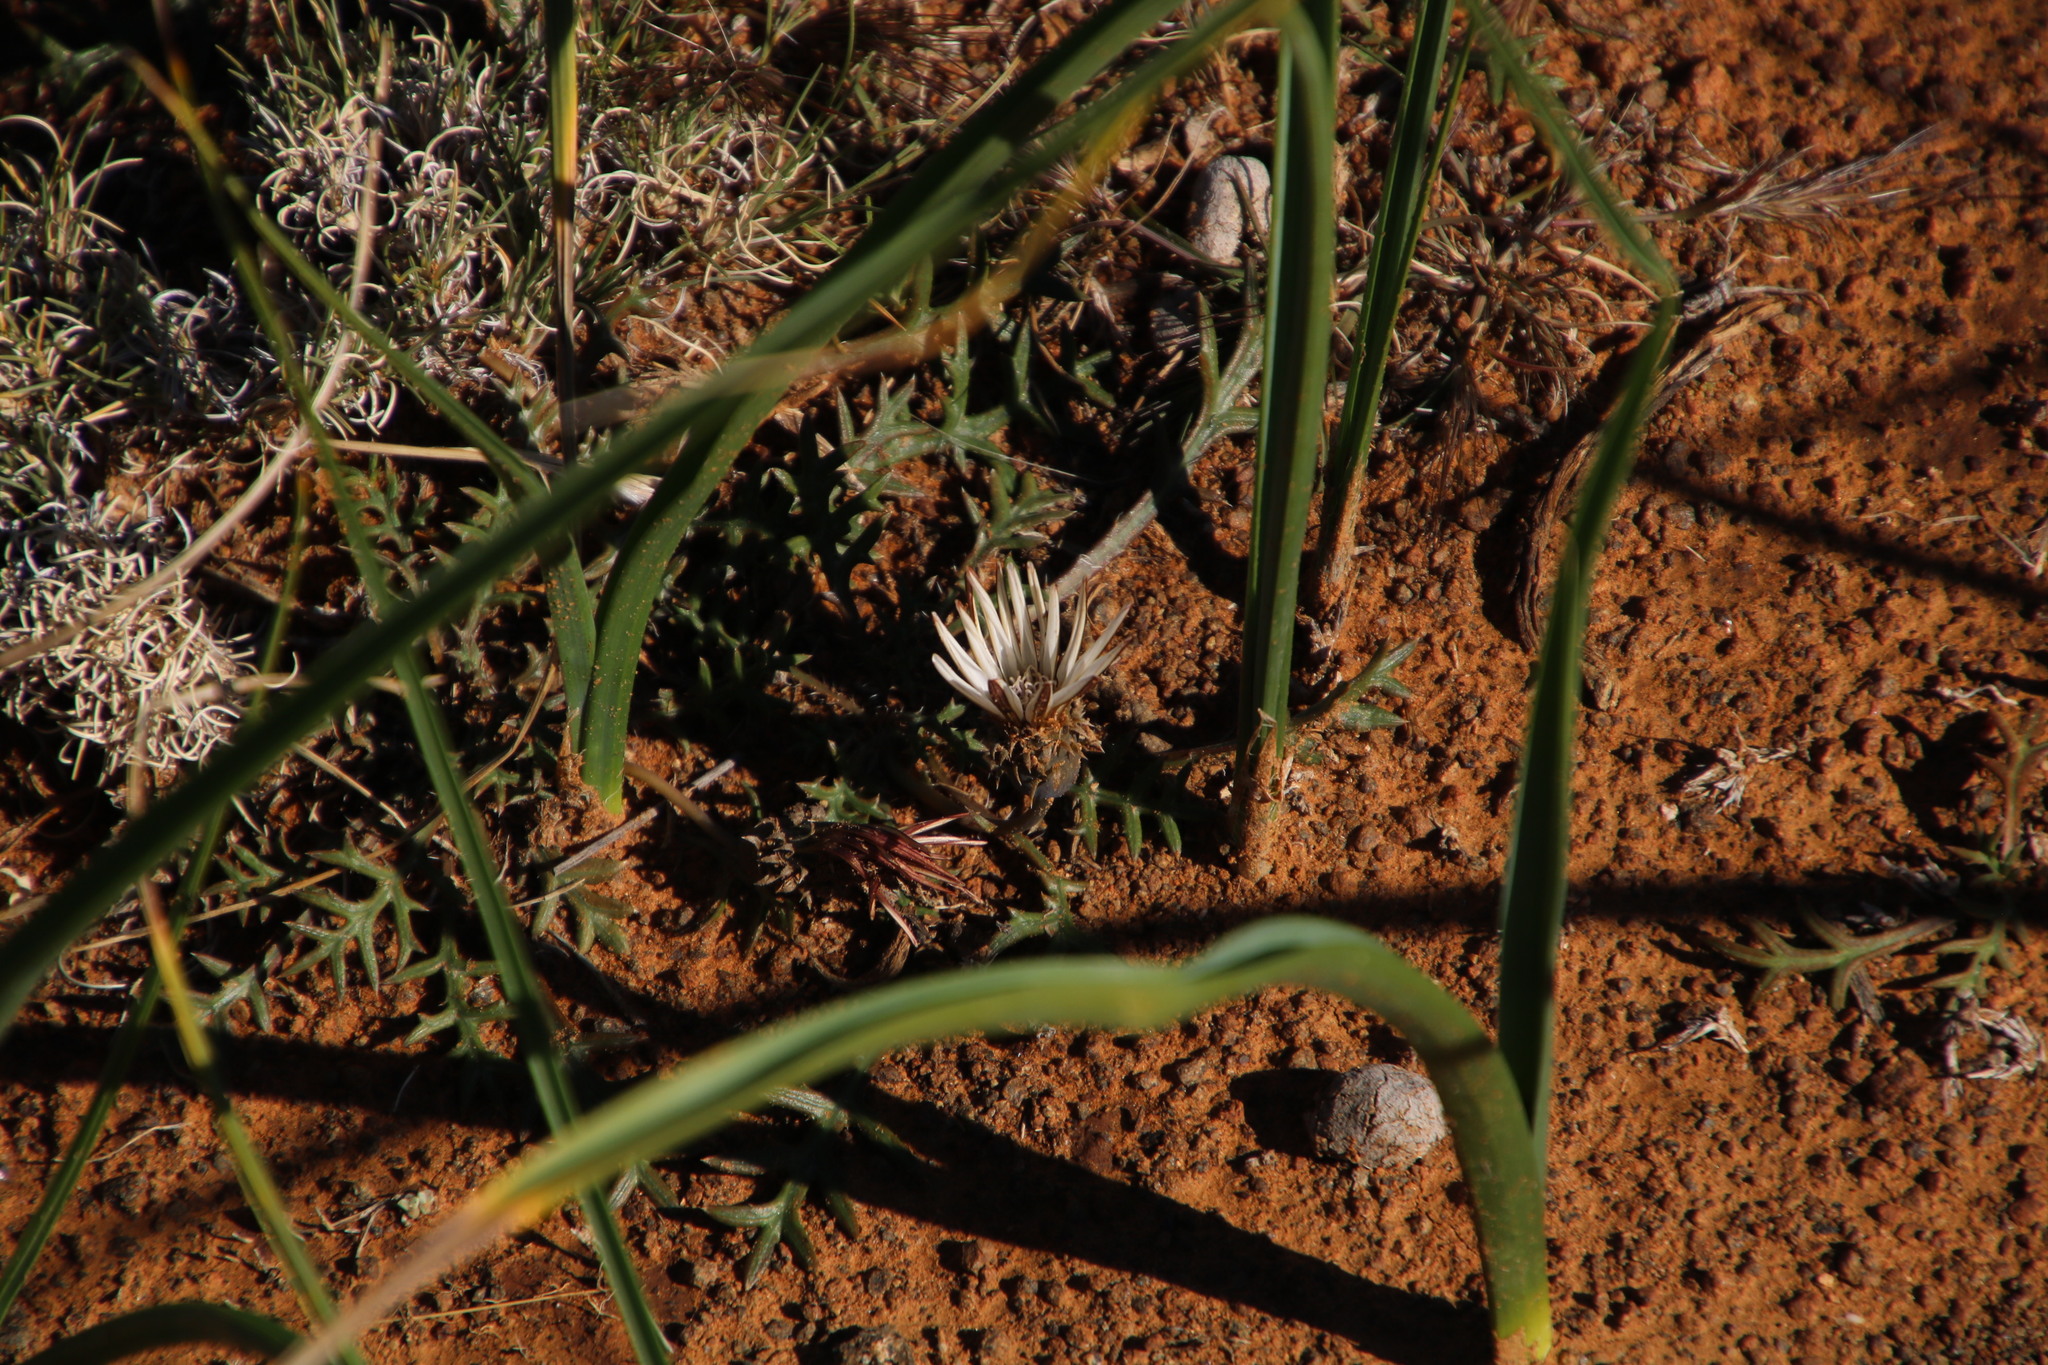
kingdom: Plantae
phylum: Tracheophyta
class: Magnoliopsida
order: Asterales
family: Asteraceae
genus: Gazania
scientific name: Gazania jurineifolia
